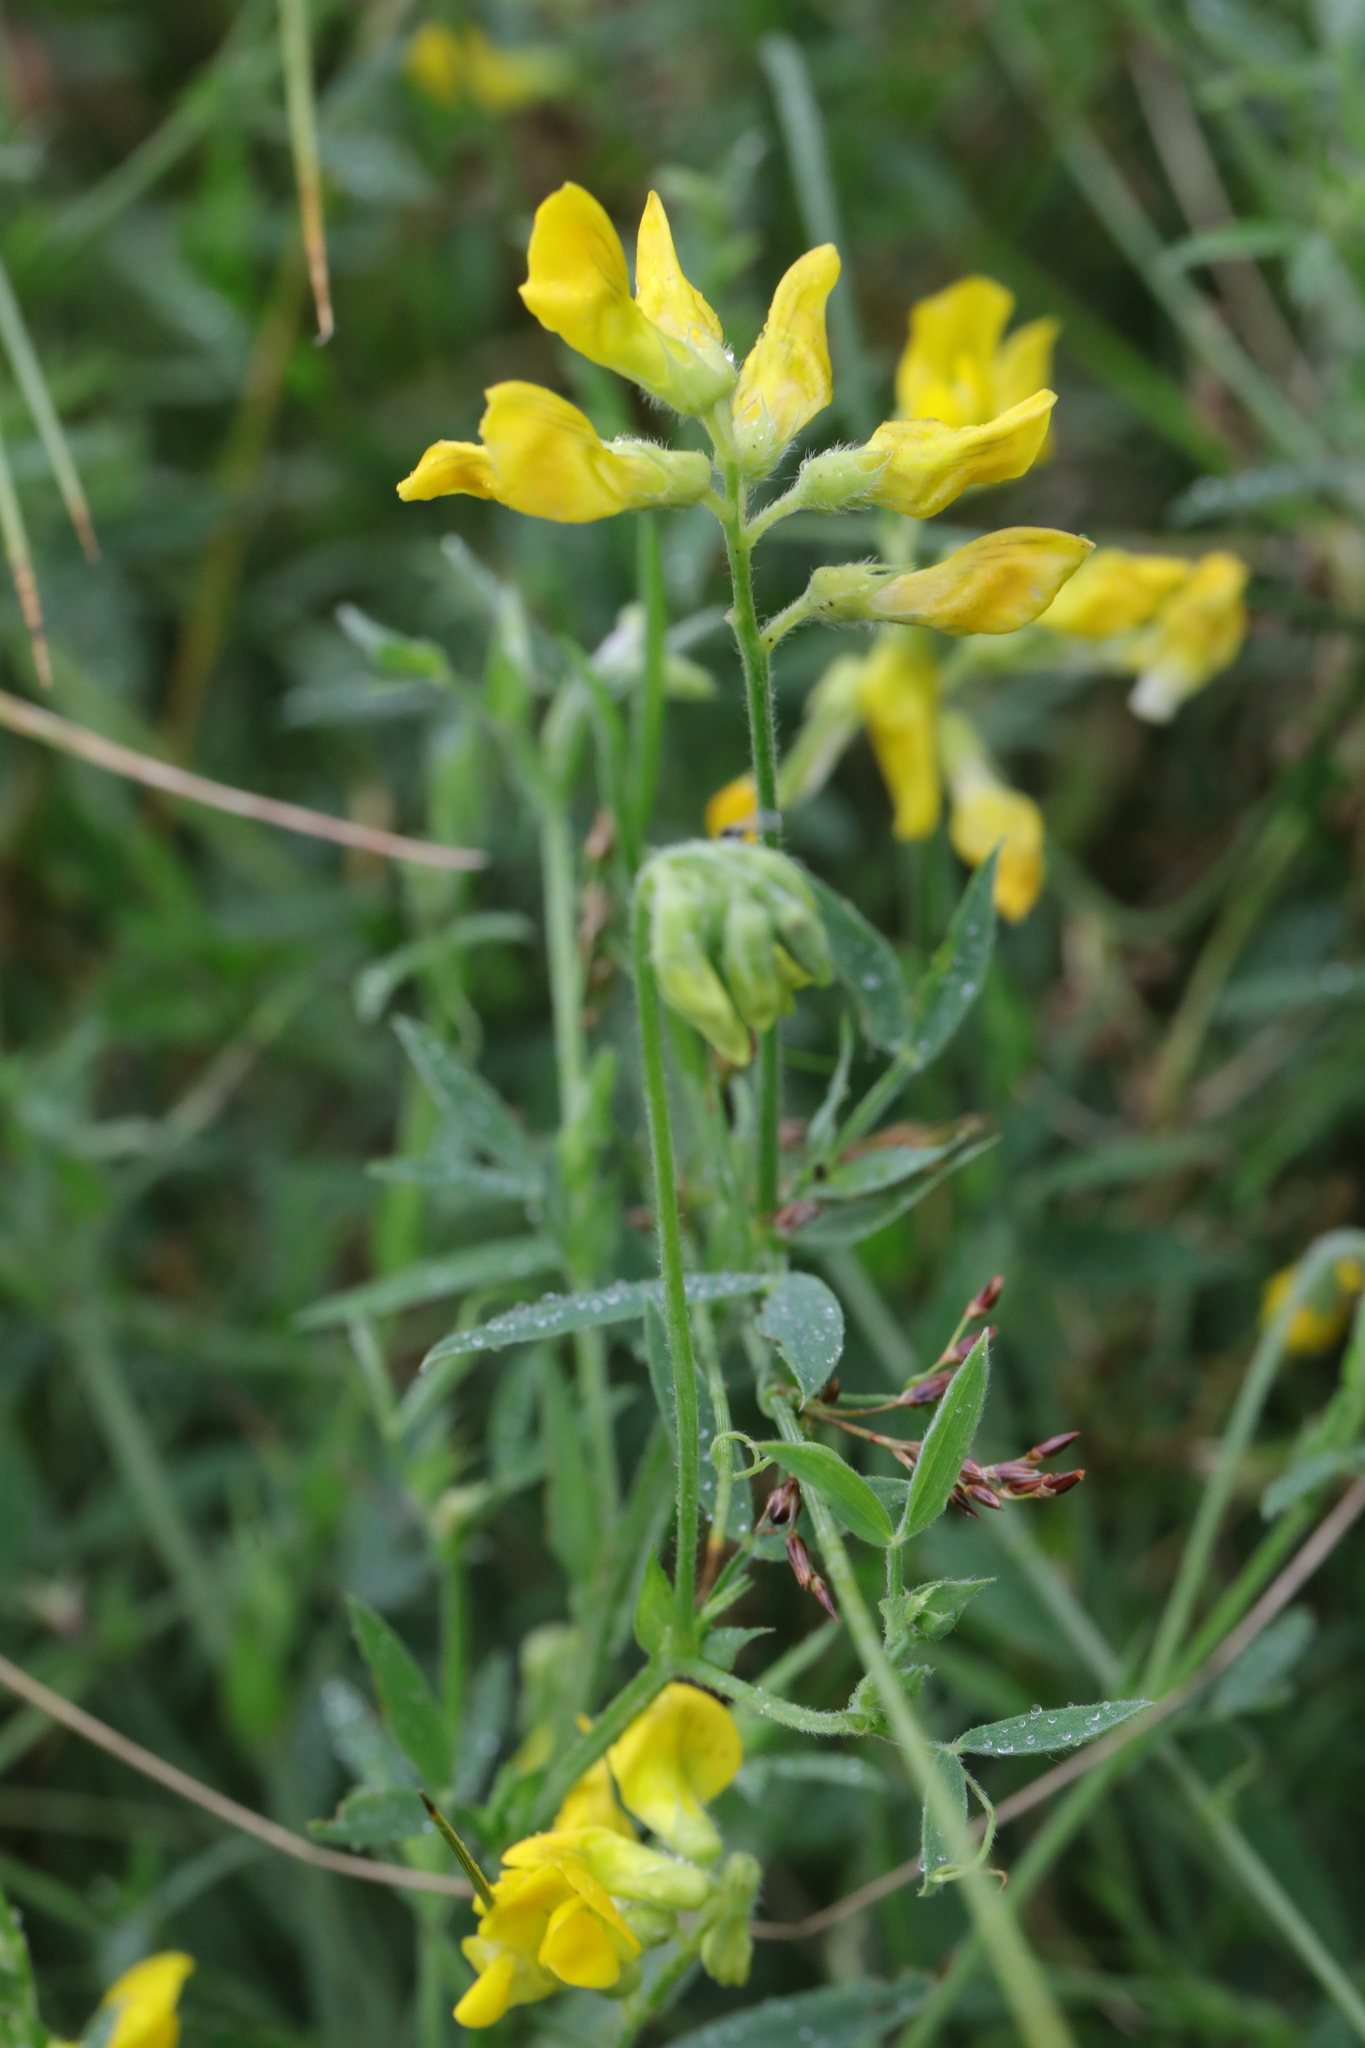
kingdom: Plantae
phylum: Tracheophyta
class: Magnoliopsida
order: Fabales
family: Fabaceae
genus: Lathyrus
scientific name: Lathyrus pratensis
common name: Meadow vetchling
